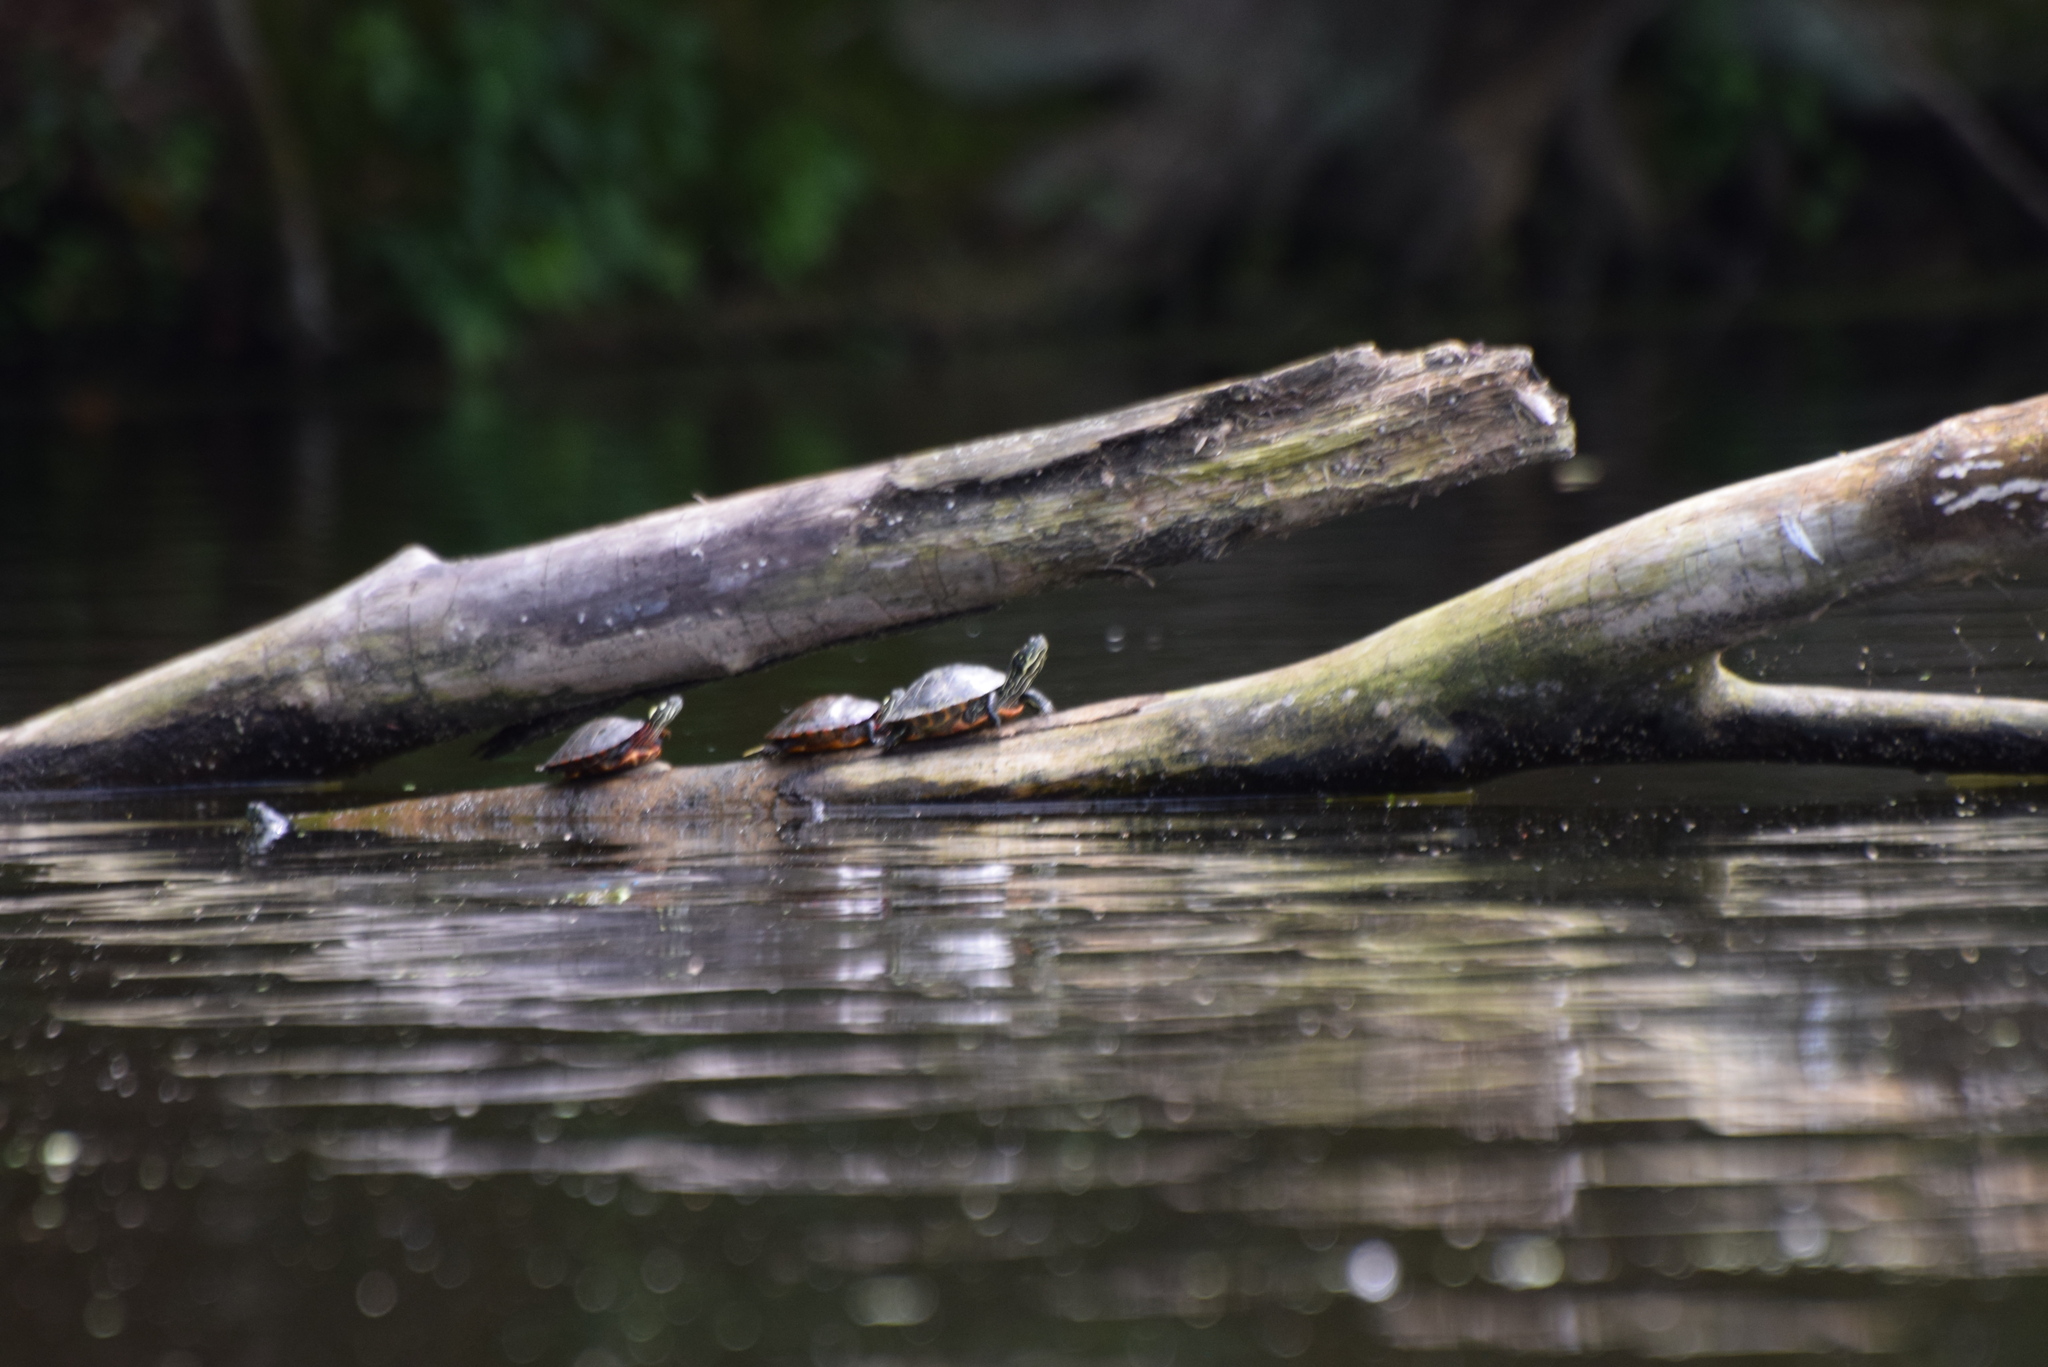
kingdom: Animalia
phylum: Chordata
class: Testudines
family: Emydidae
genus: Pseudemys
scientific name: Pseudemys rubriventris
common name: American red-bellied turtle
